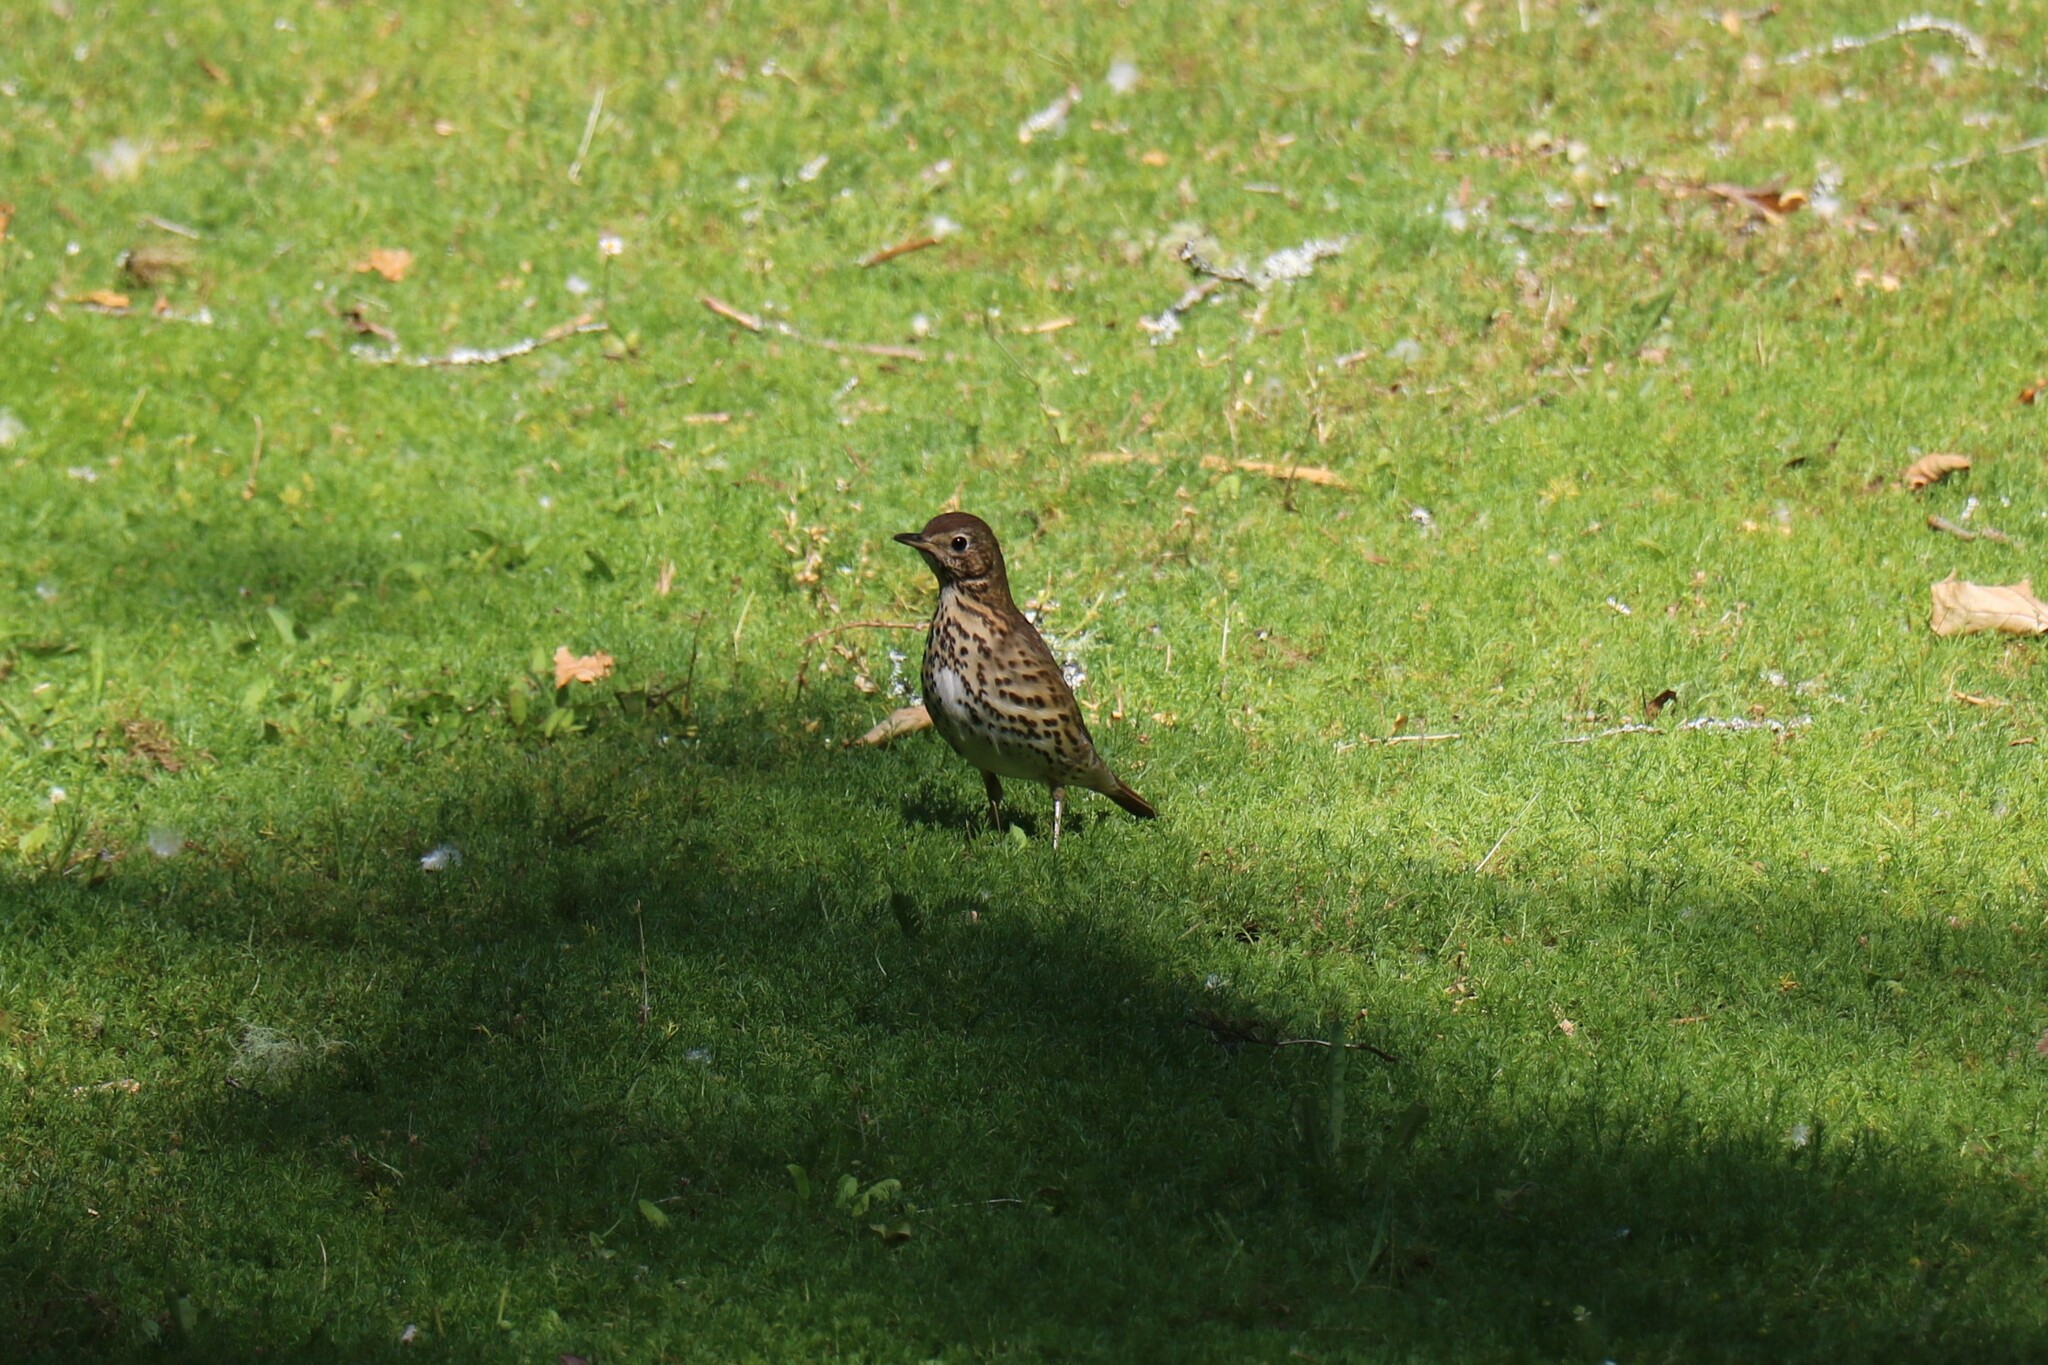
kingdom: Animalia
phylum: Chordata
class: Aves
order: Passeriformes
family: Turdidae
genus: Turdus
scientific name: Turdus philomelos
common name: Song thrush
